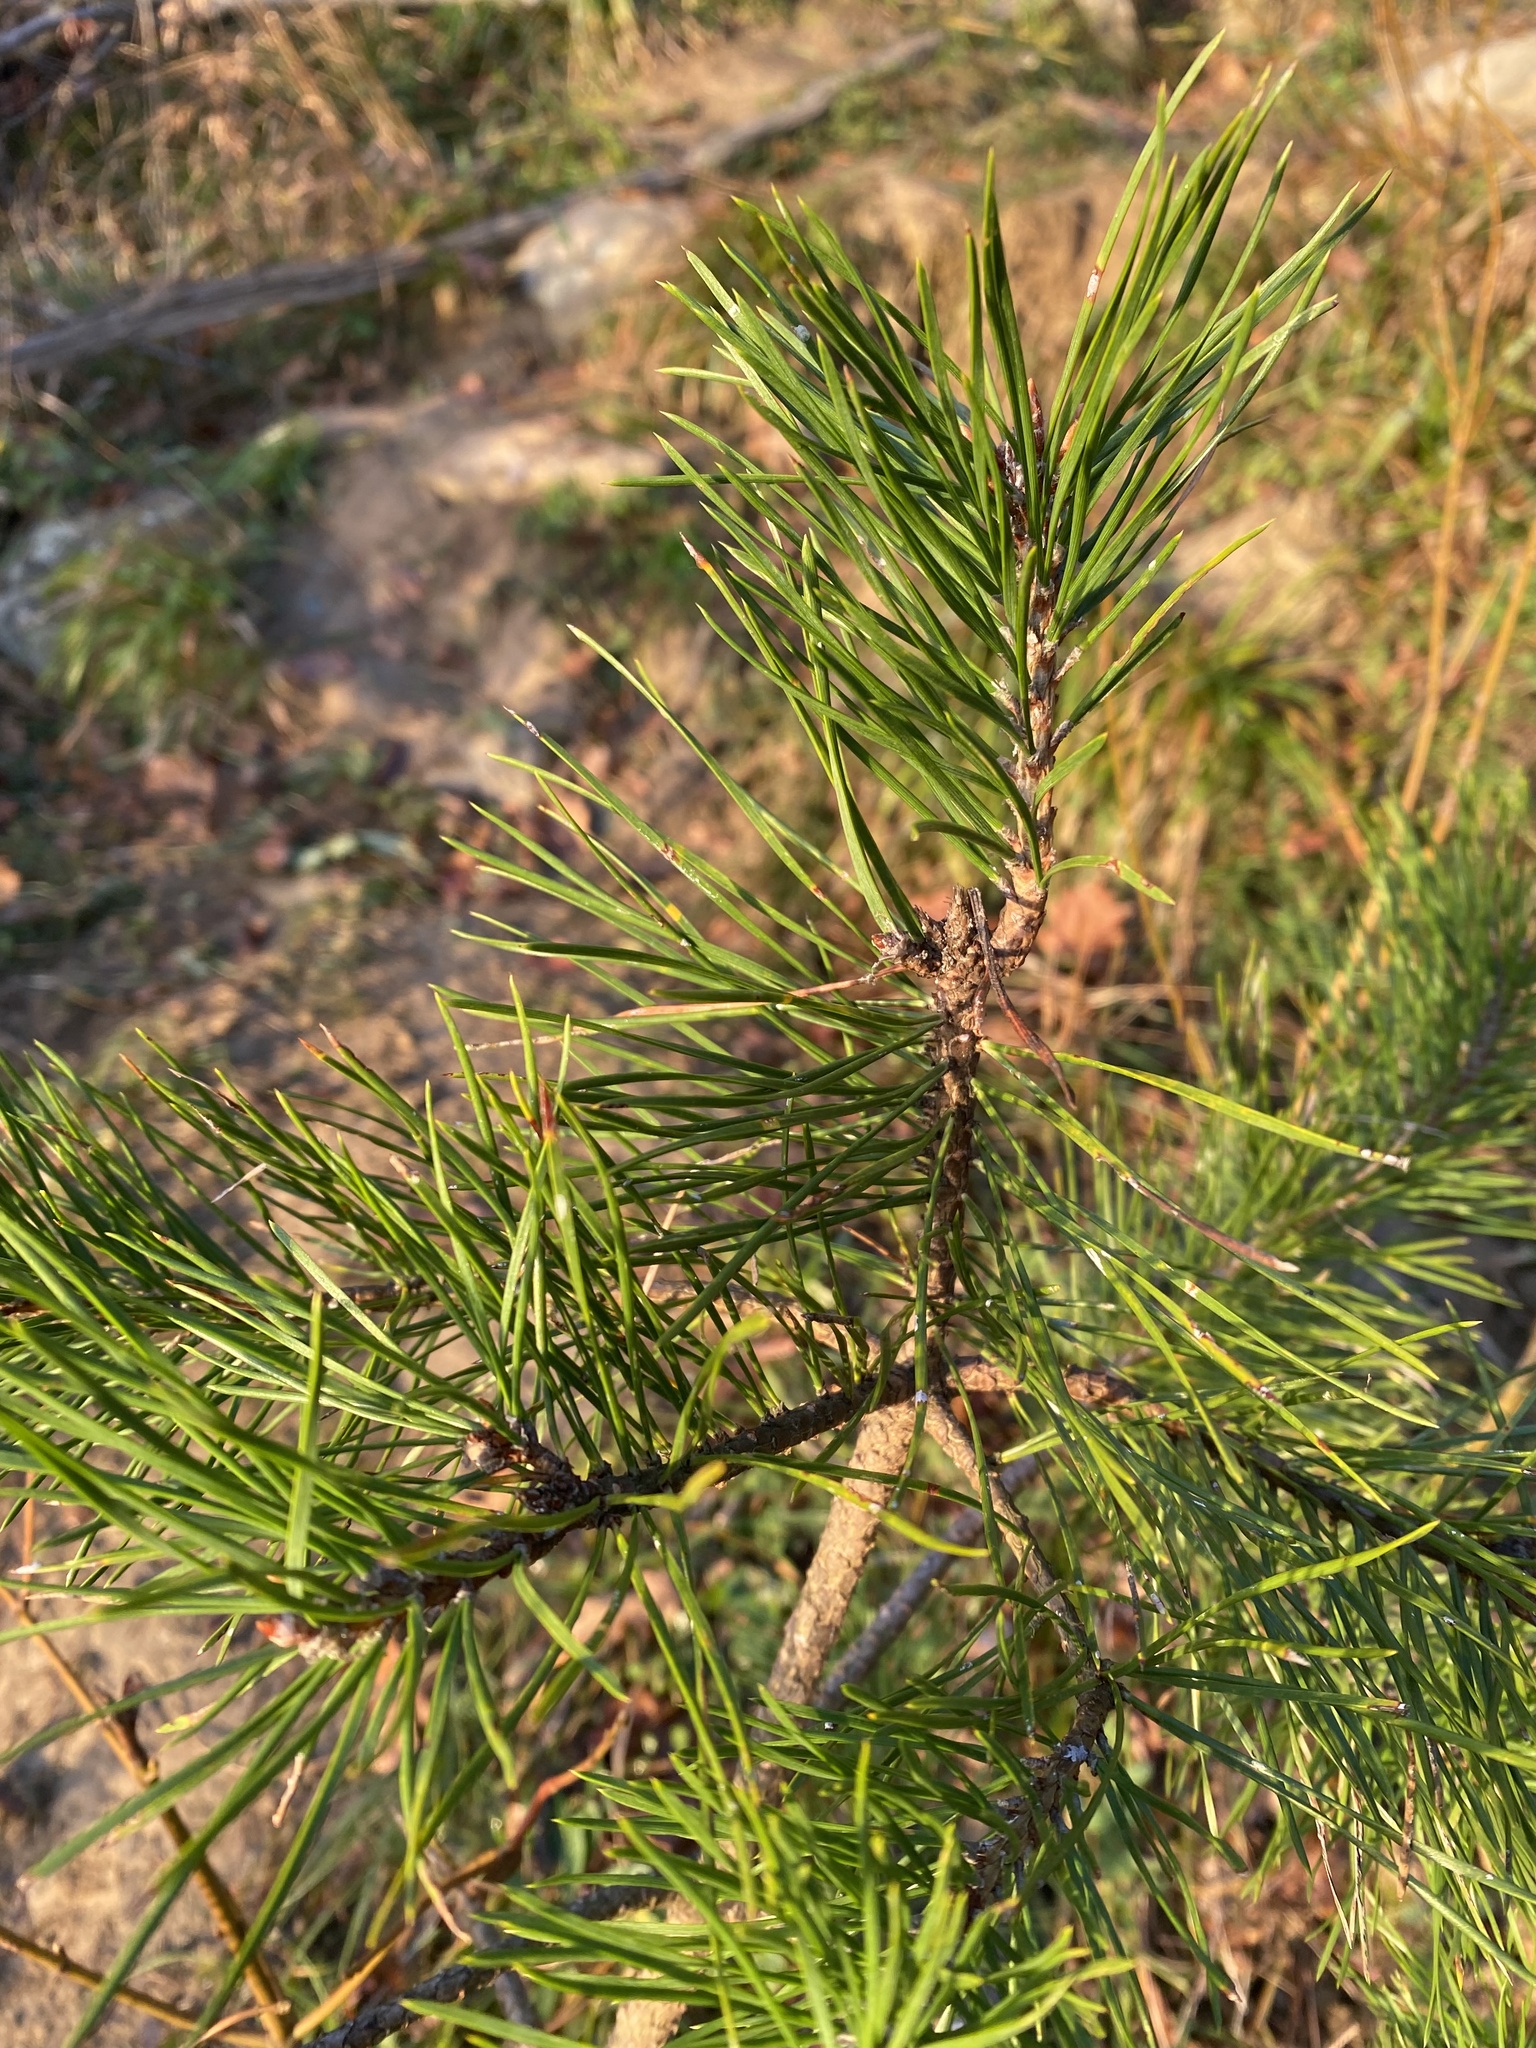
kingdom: Plantae
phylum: Tracheophyta
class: Pinopsida
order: Pinales
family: Pinaceae
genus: Pinus
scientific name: Pinus sylvestris
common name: Scots pine
